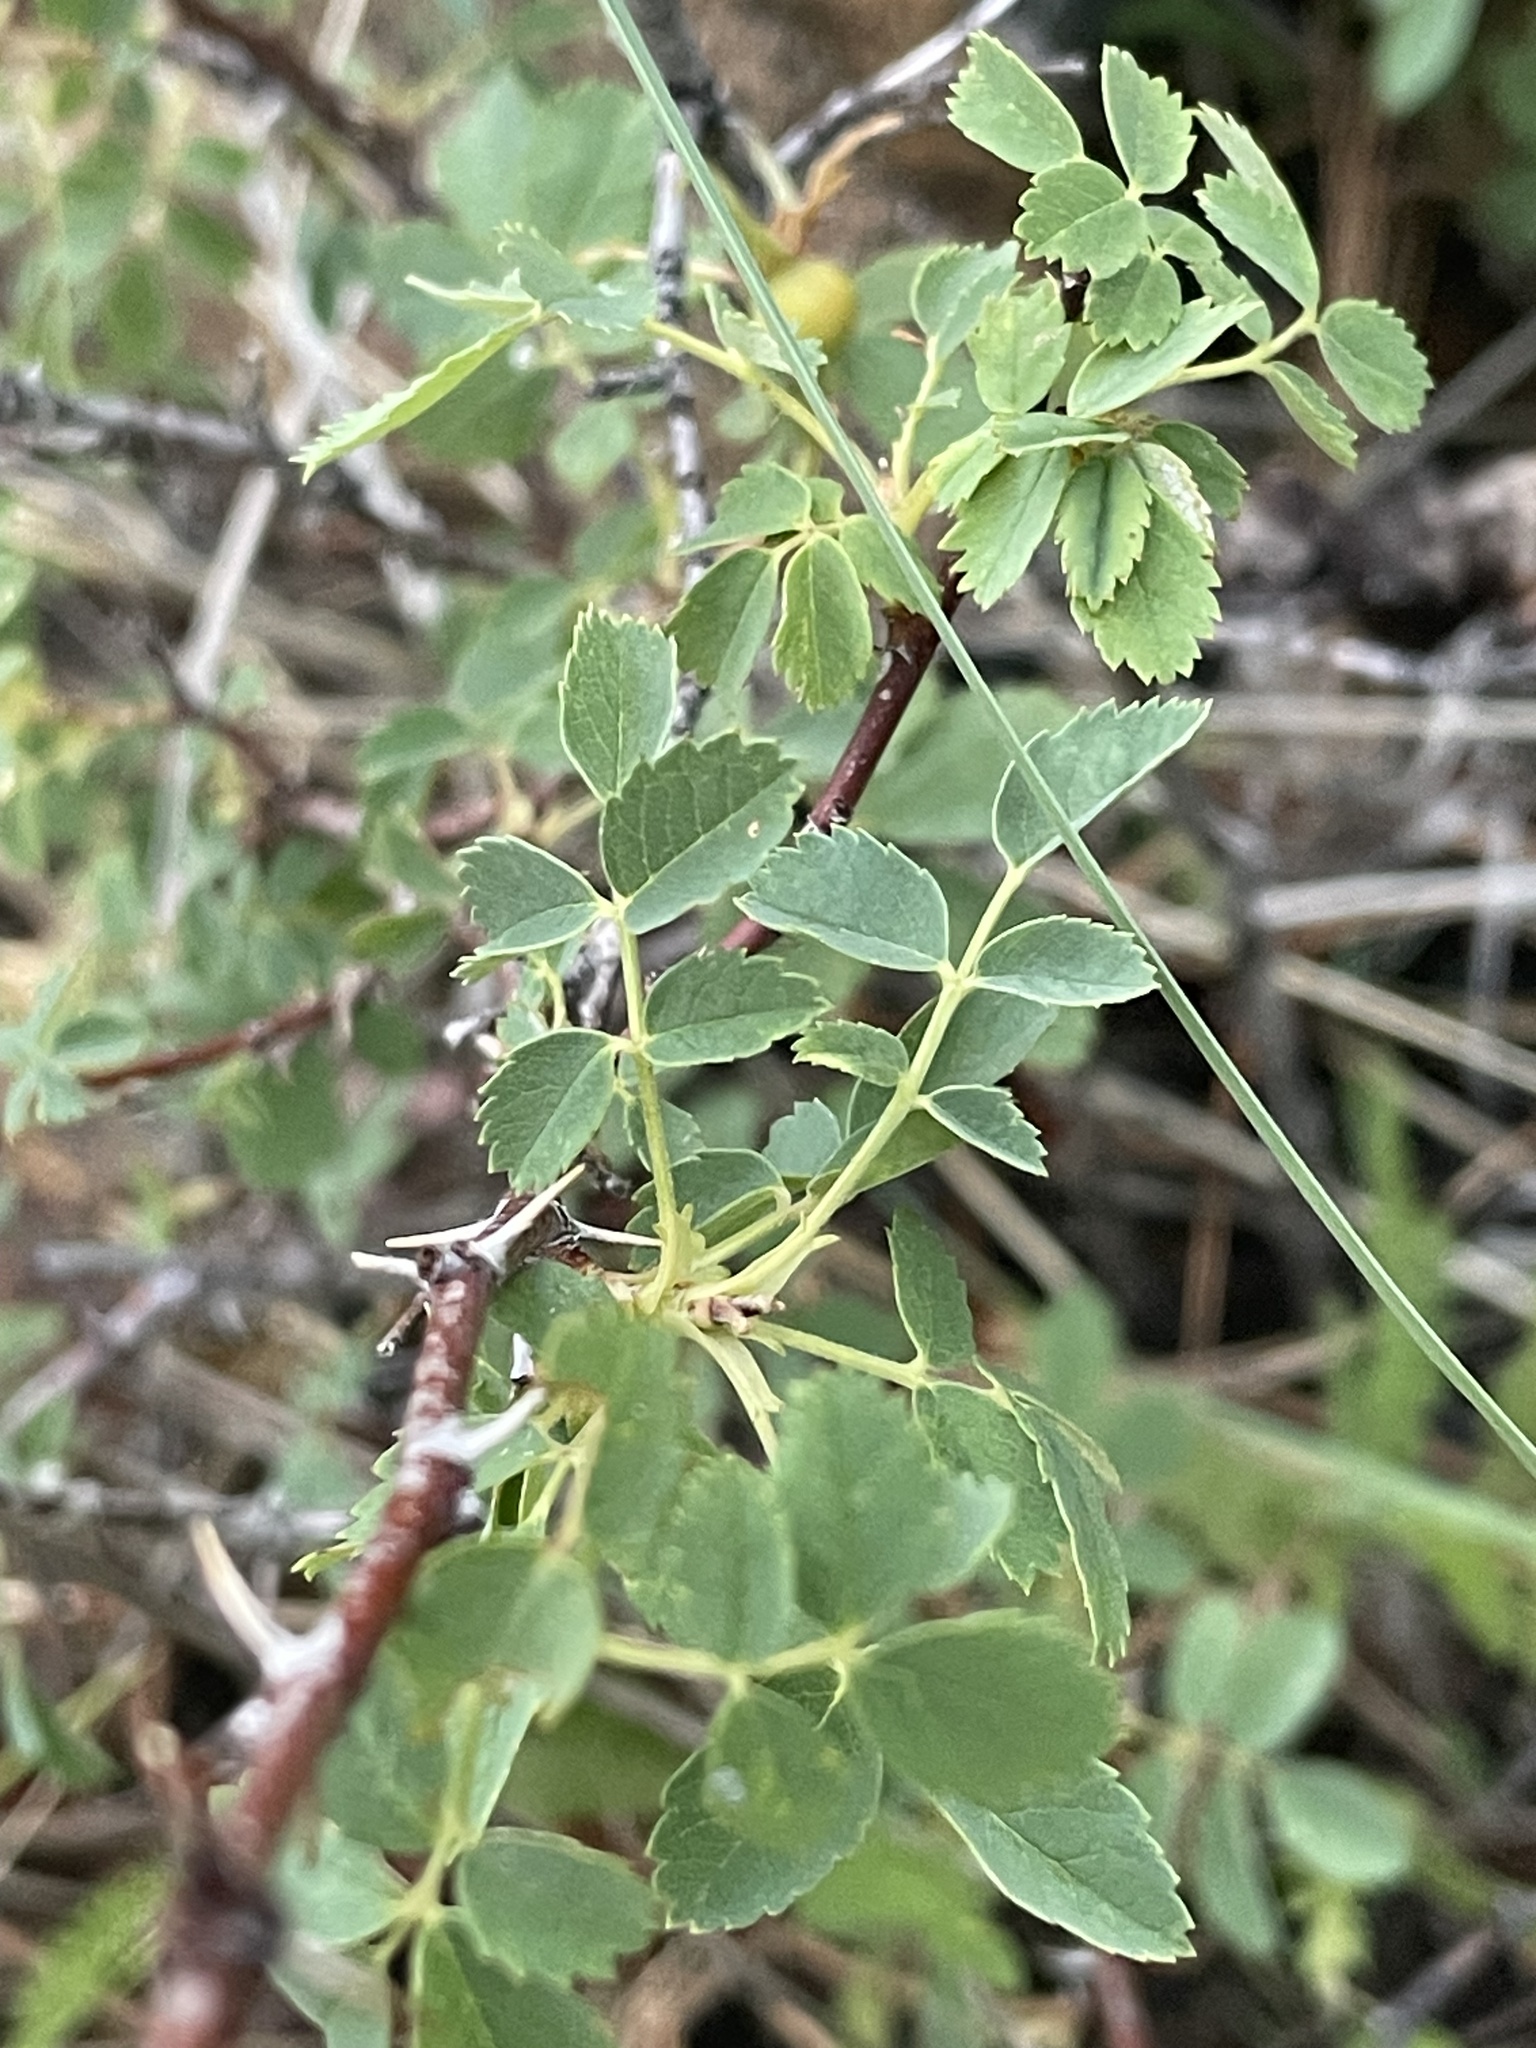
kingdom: Plantae
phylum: Tracheophyta
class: Magnoliopsida
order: Rosales
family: Rosaceae
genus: Rosa
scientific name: Rosa woodsii
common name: Woods's rose
